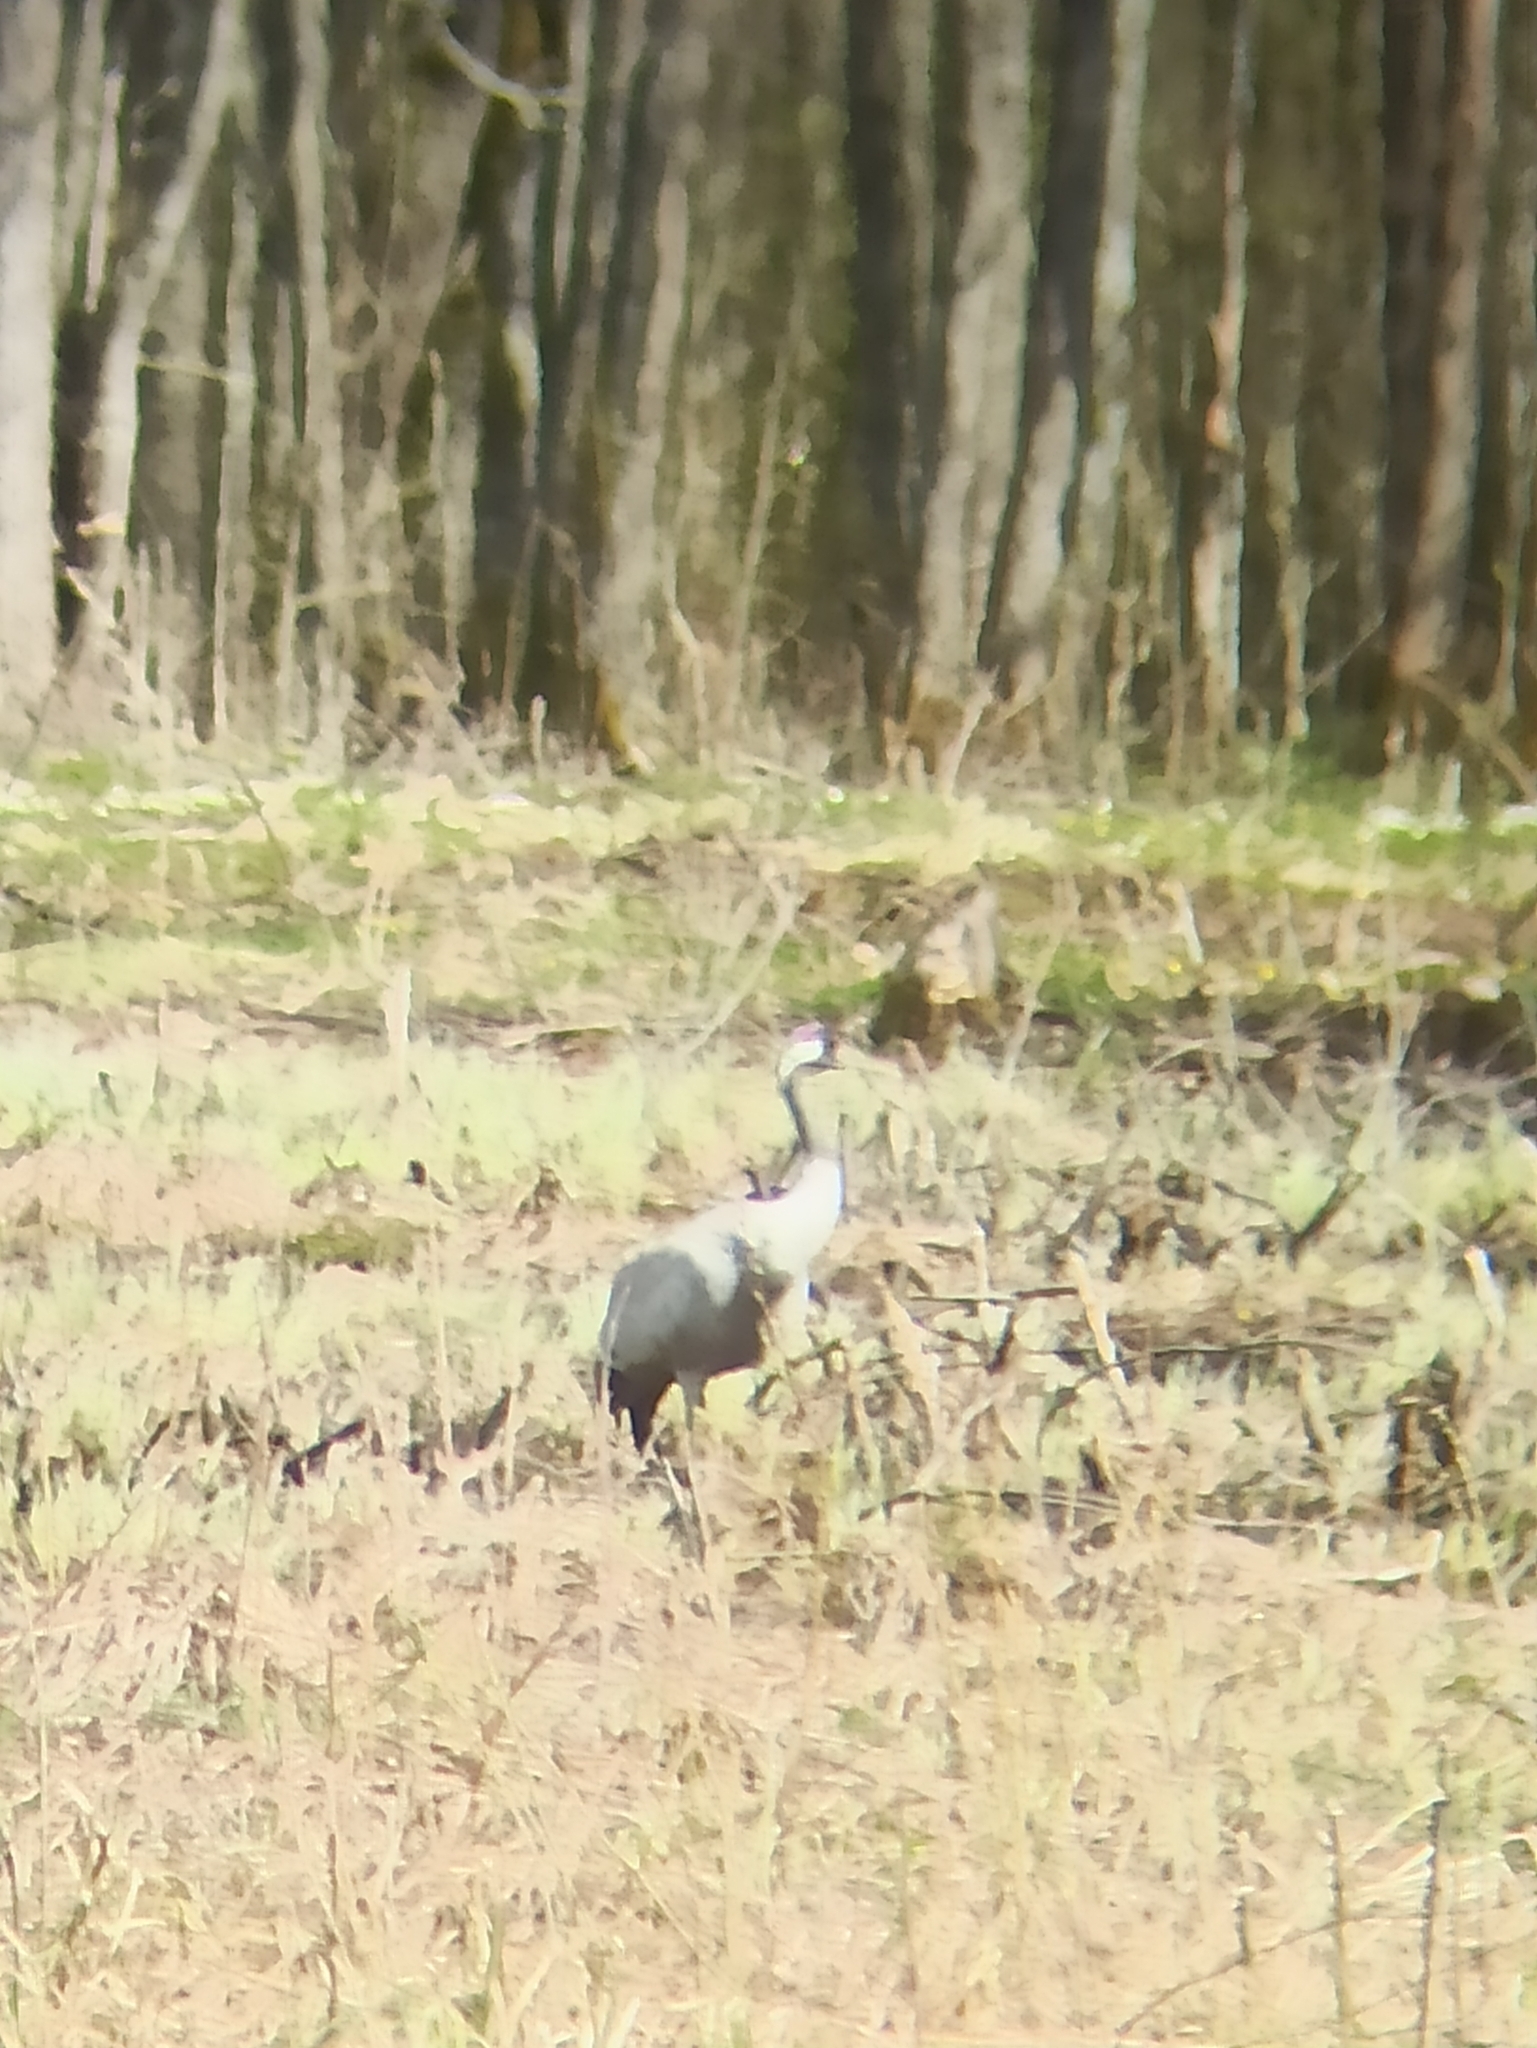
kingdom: Animalia
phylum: Chordata
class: Aves
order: Gruiformes
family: Gruidae
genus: Grus
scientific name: Grus grus
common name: Common crane
